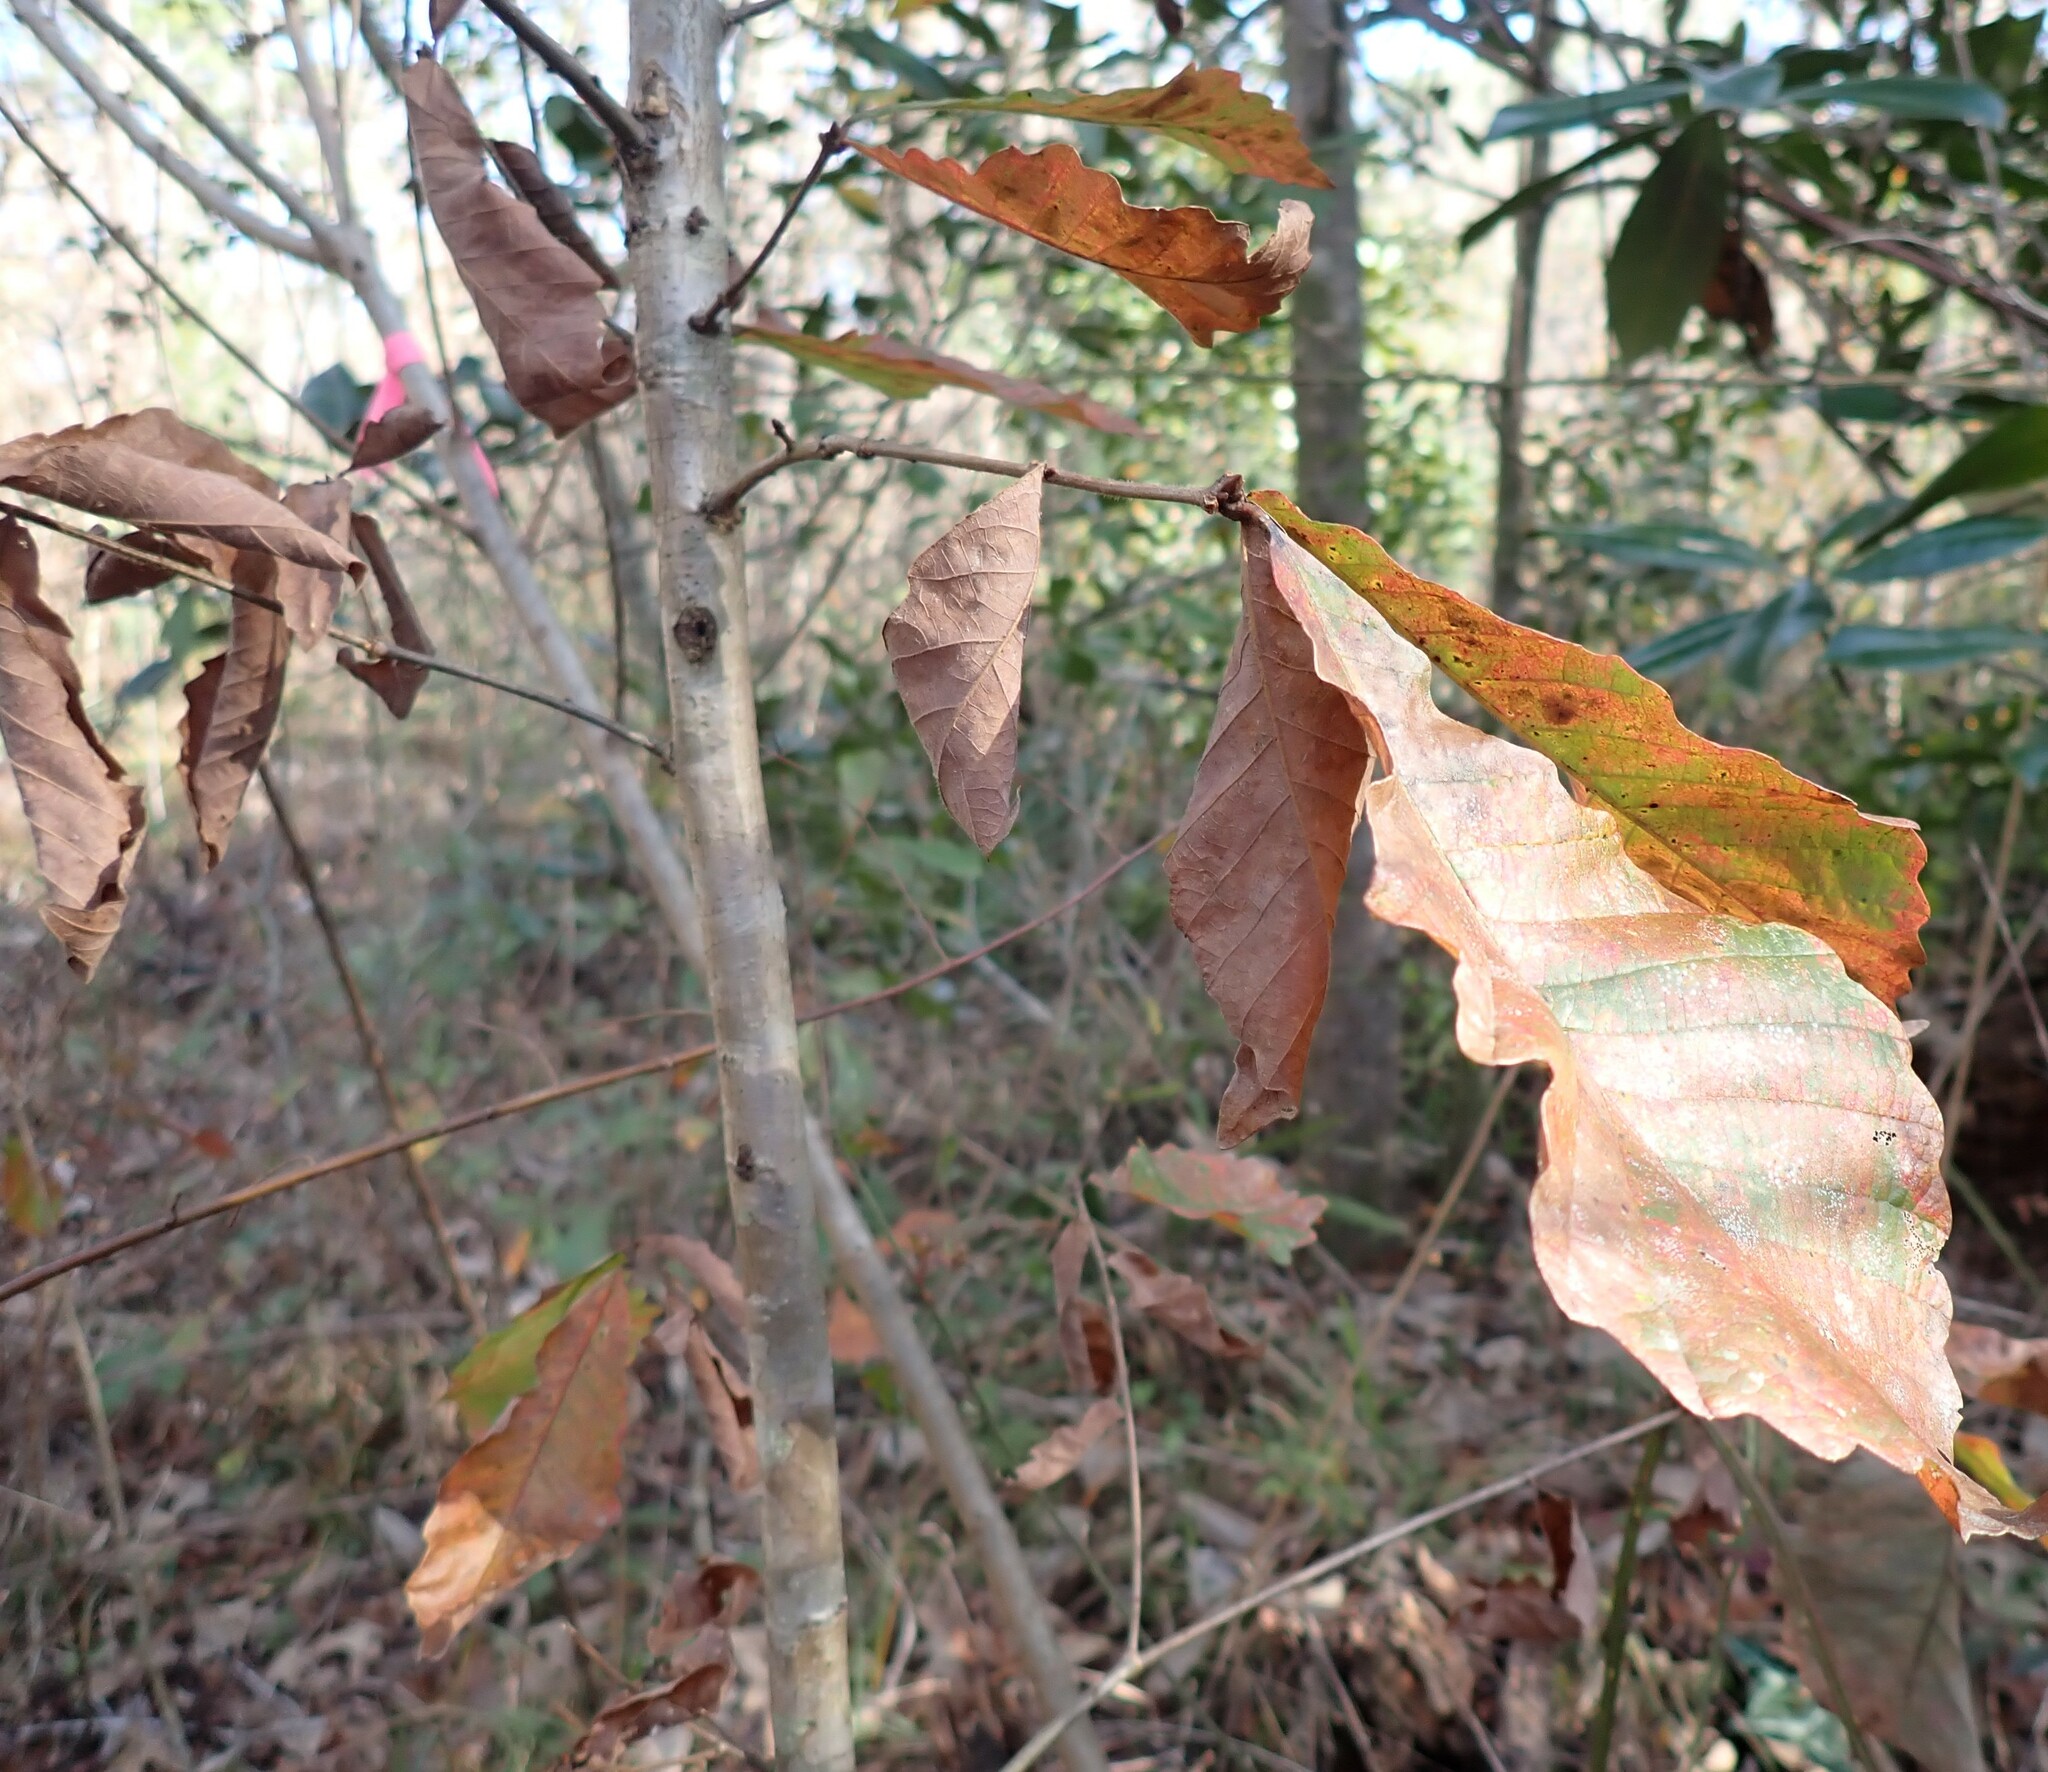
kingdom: Plantae
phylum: Tracheophyta
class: Magnoliopsida
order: Fagales
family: Fagaceae
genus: Quercus
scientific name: Quercus michauxii
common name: Swamp chestnut oak
